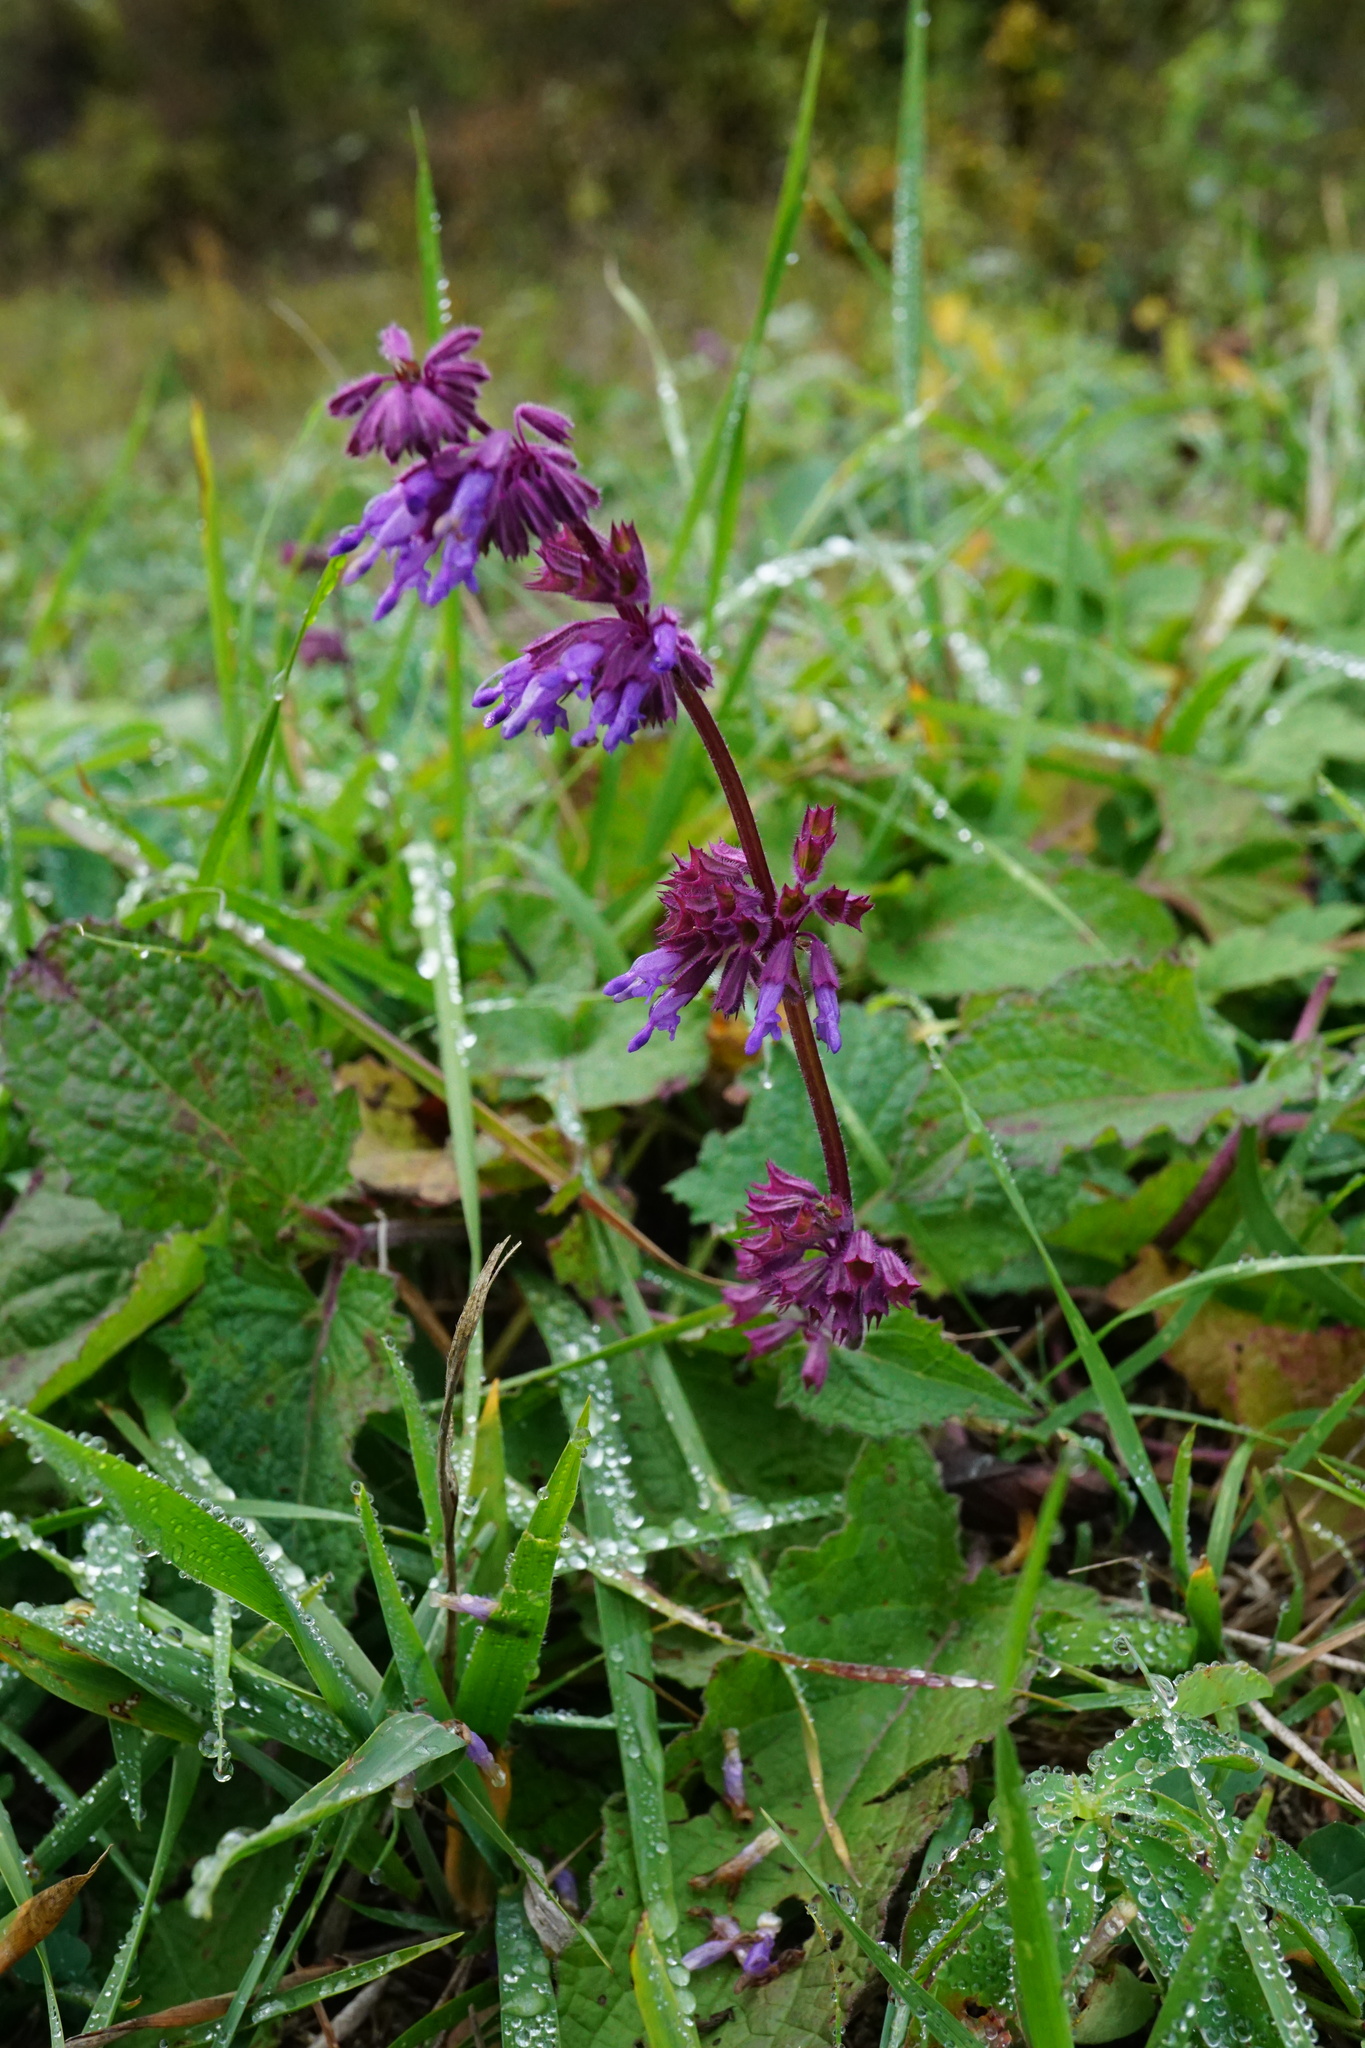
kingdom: Plantae
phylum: Tracheophyta
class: Magnoliopsida
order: Lamiales
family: Lamiaceae
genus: Salvia
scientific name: Salvia verticillata
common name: Whorled clary
